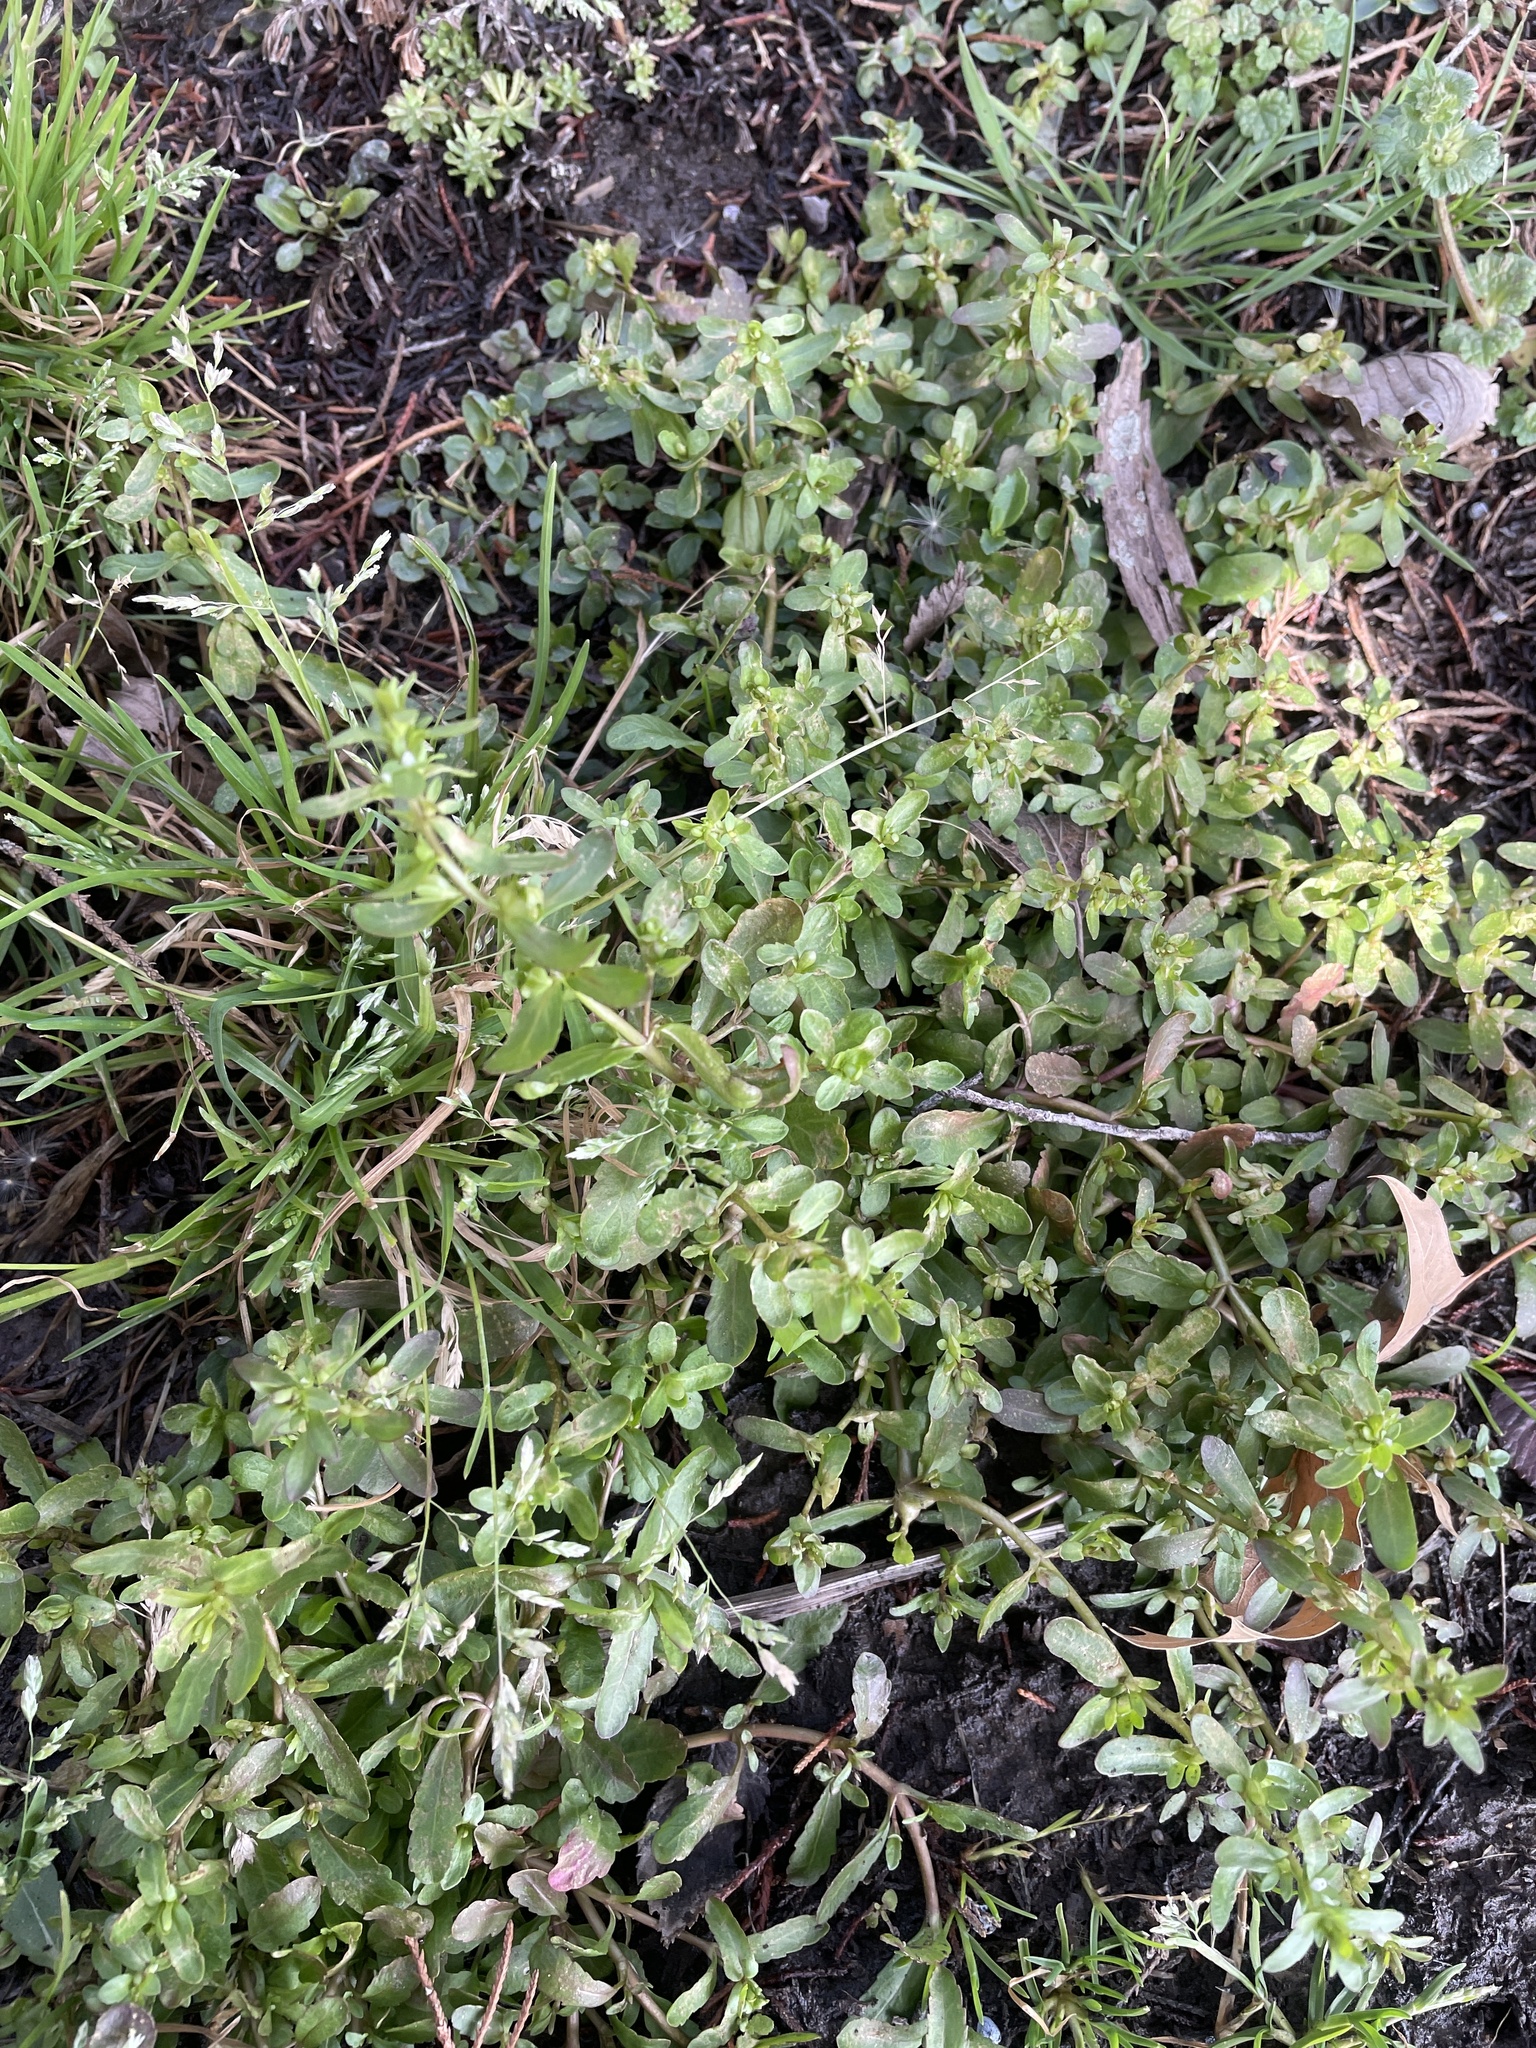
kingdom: Plantae
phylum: Tracheophyta
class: Magnoliopsida
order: Lamiales
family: Plantaginaceae
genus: Veronica
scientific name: Veronica peregrina
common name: Neckweed
